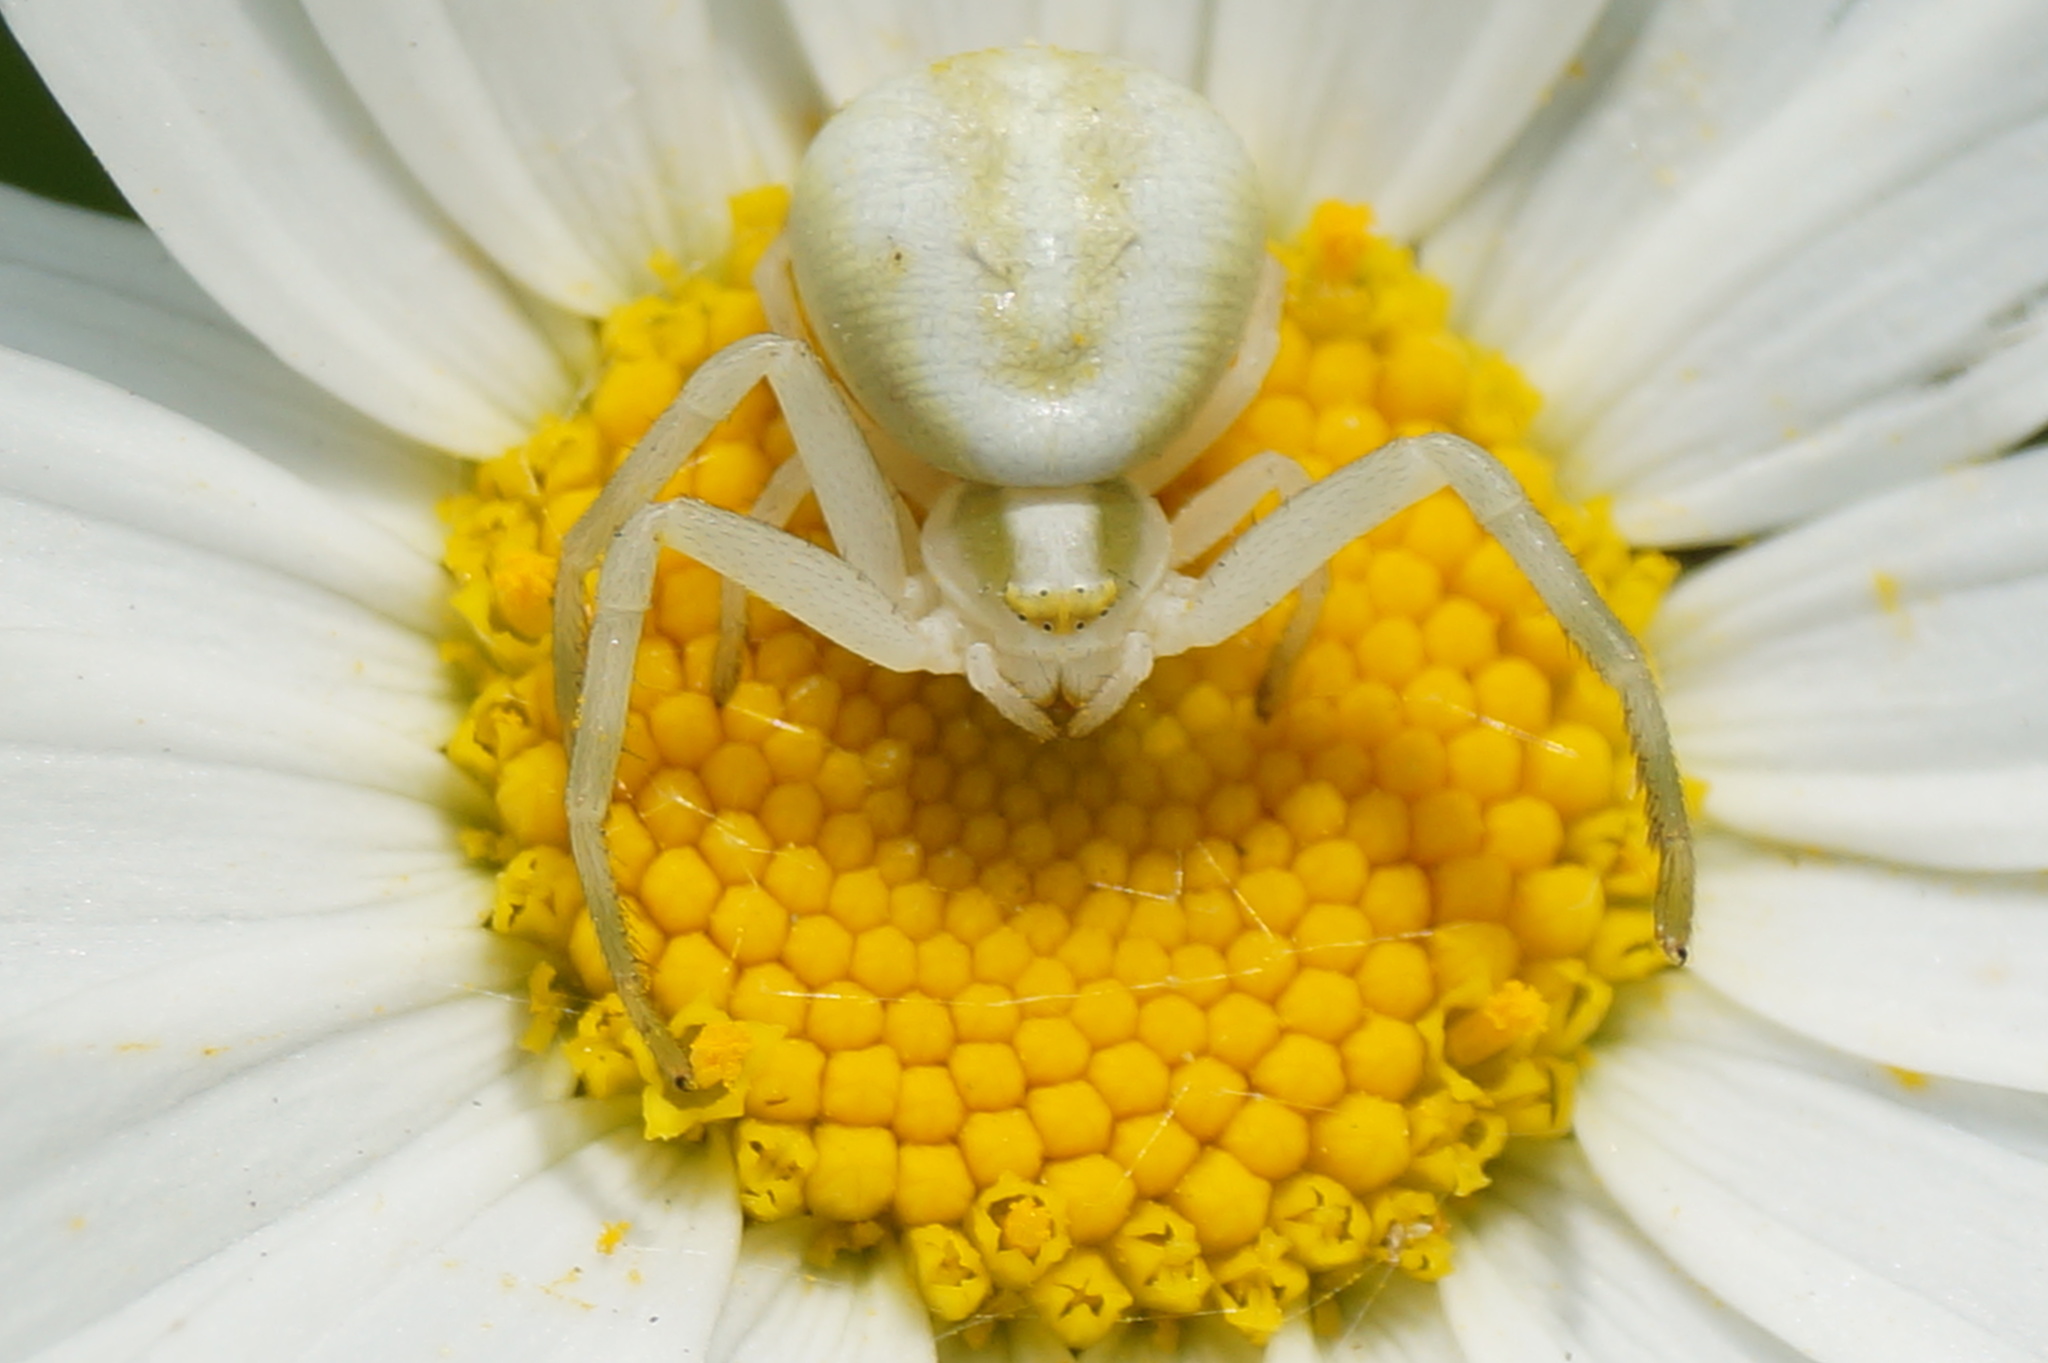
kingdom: Animalia
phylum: Arthropoda
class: Arachnida
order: Araneae
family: Thomisidae
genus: Misumena
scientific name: Misumena vatia
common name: Goldenrod crab spider
